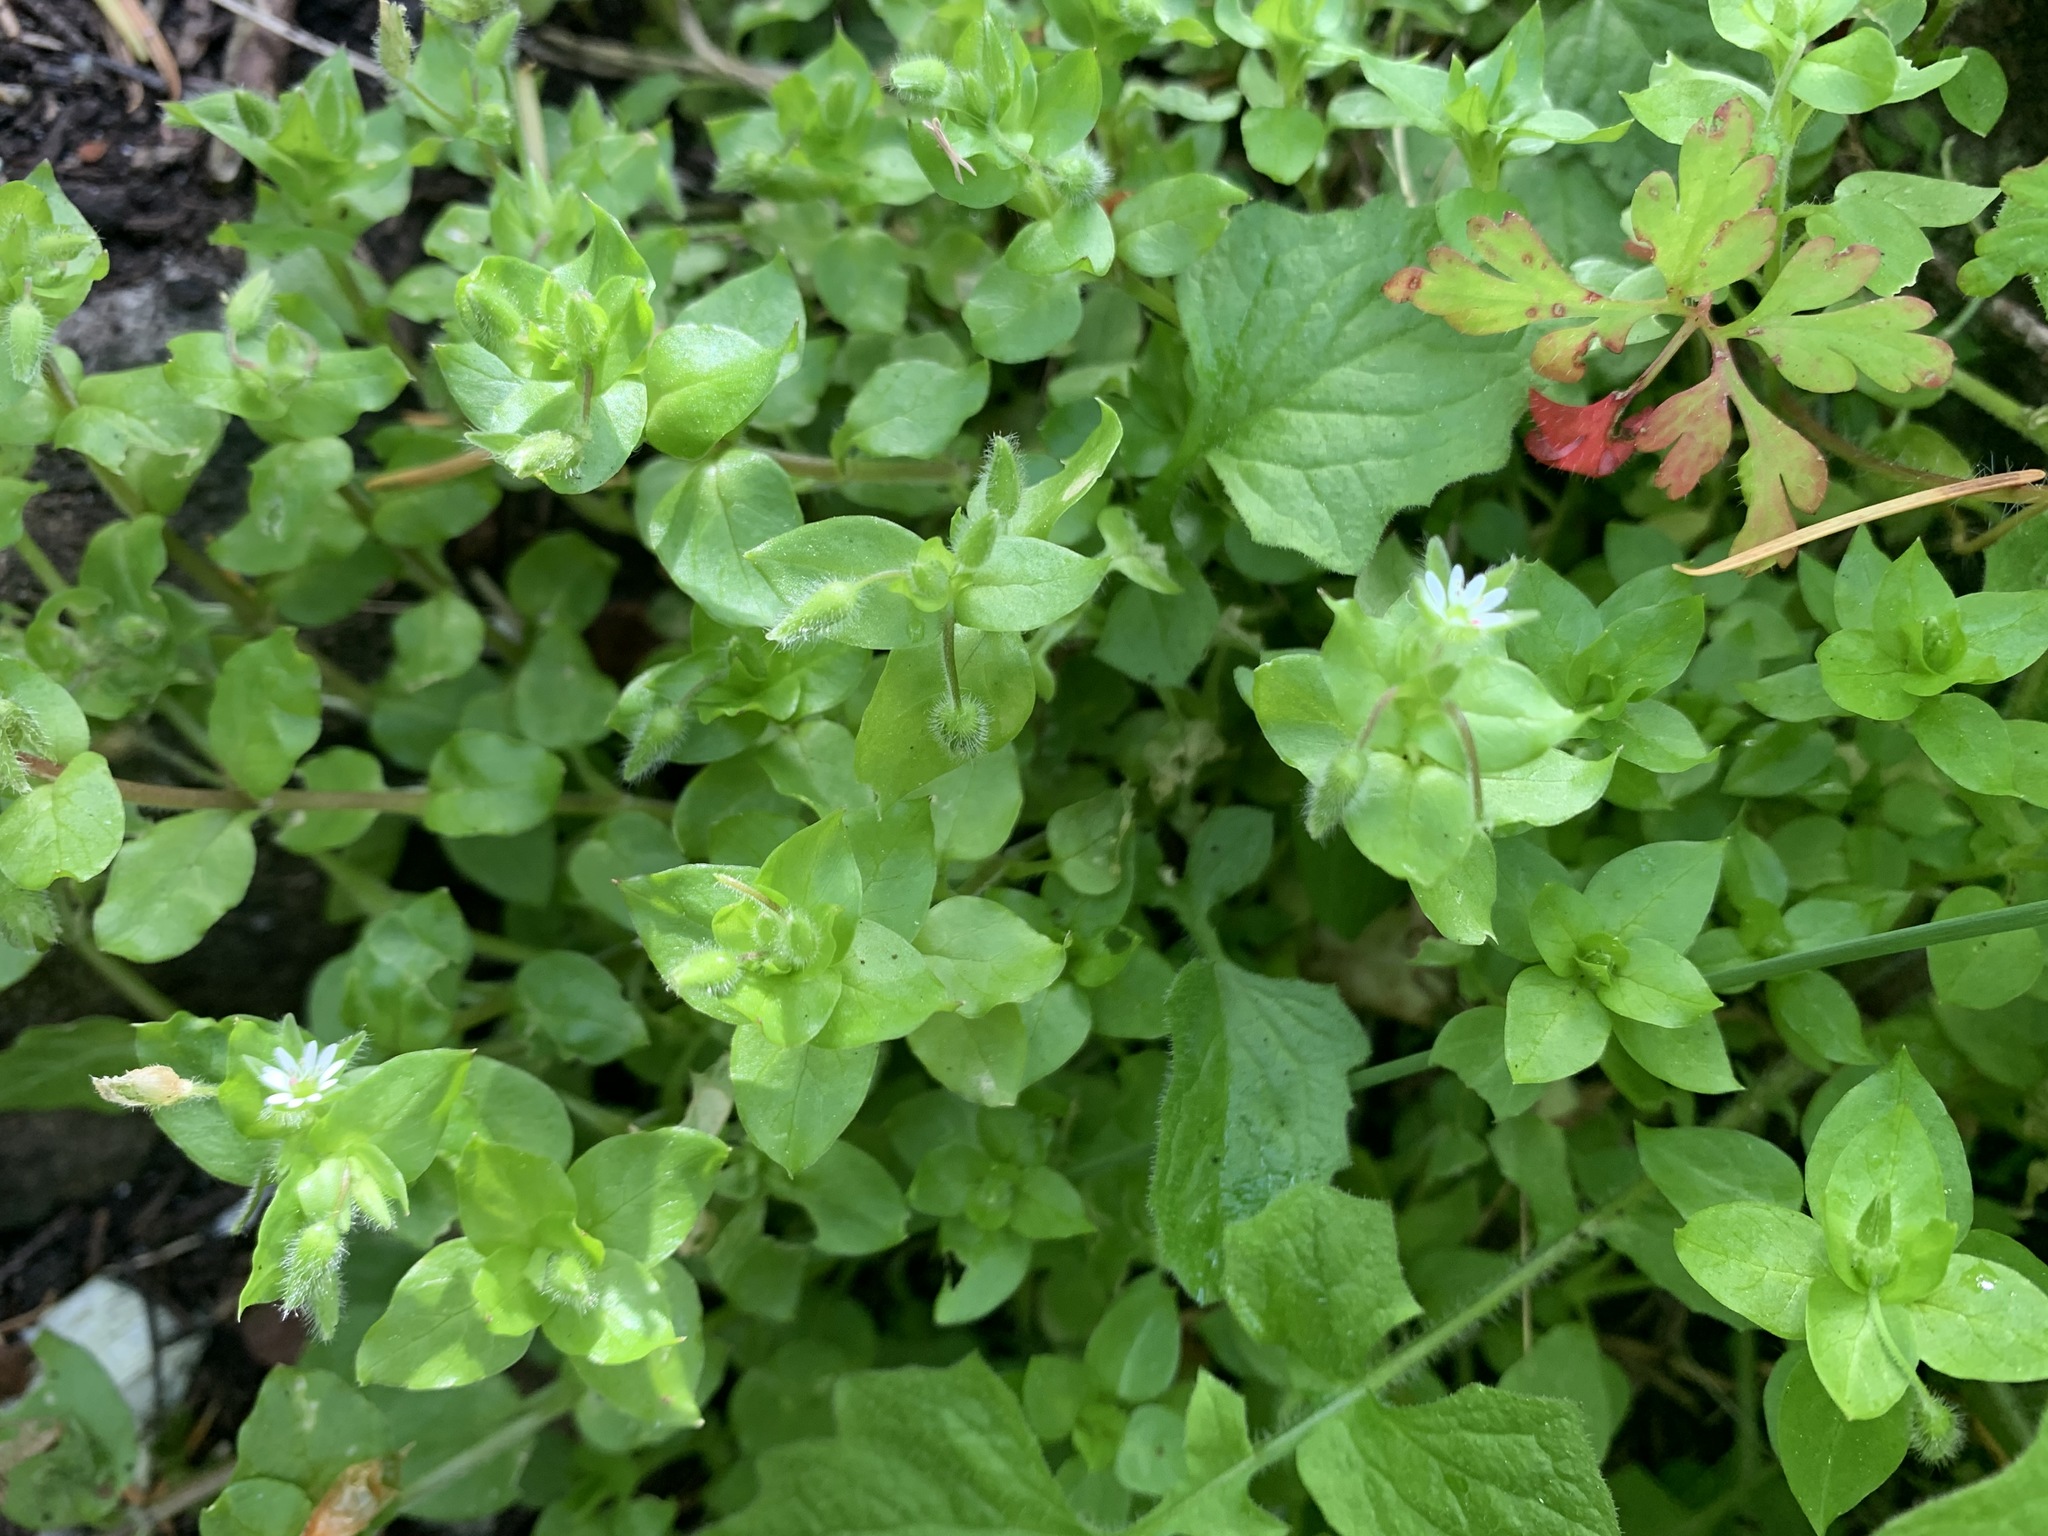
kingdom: Plantae
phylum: Tracheophyta
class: Magnoliopsida
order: Caryophyllales
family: Caryophyllaceae
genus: Stellaria
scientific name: Stellaria media
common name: Common chickweed
